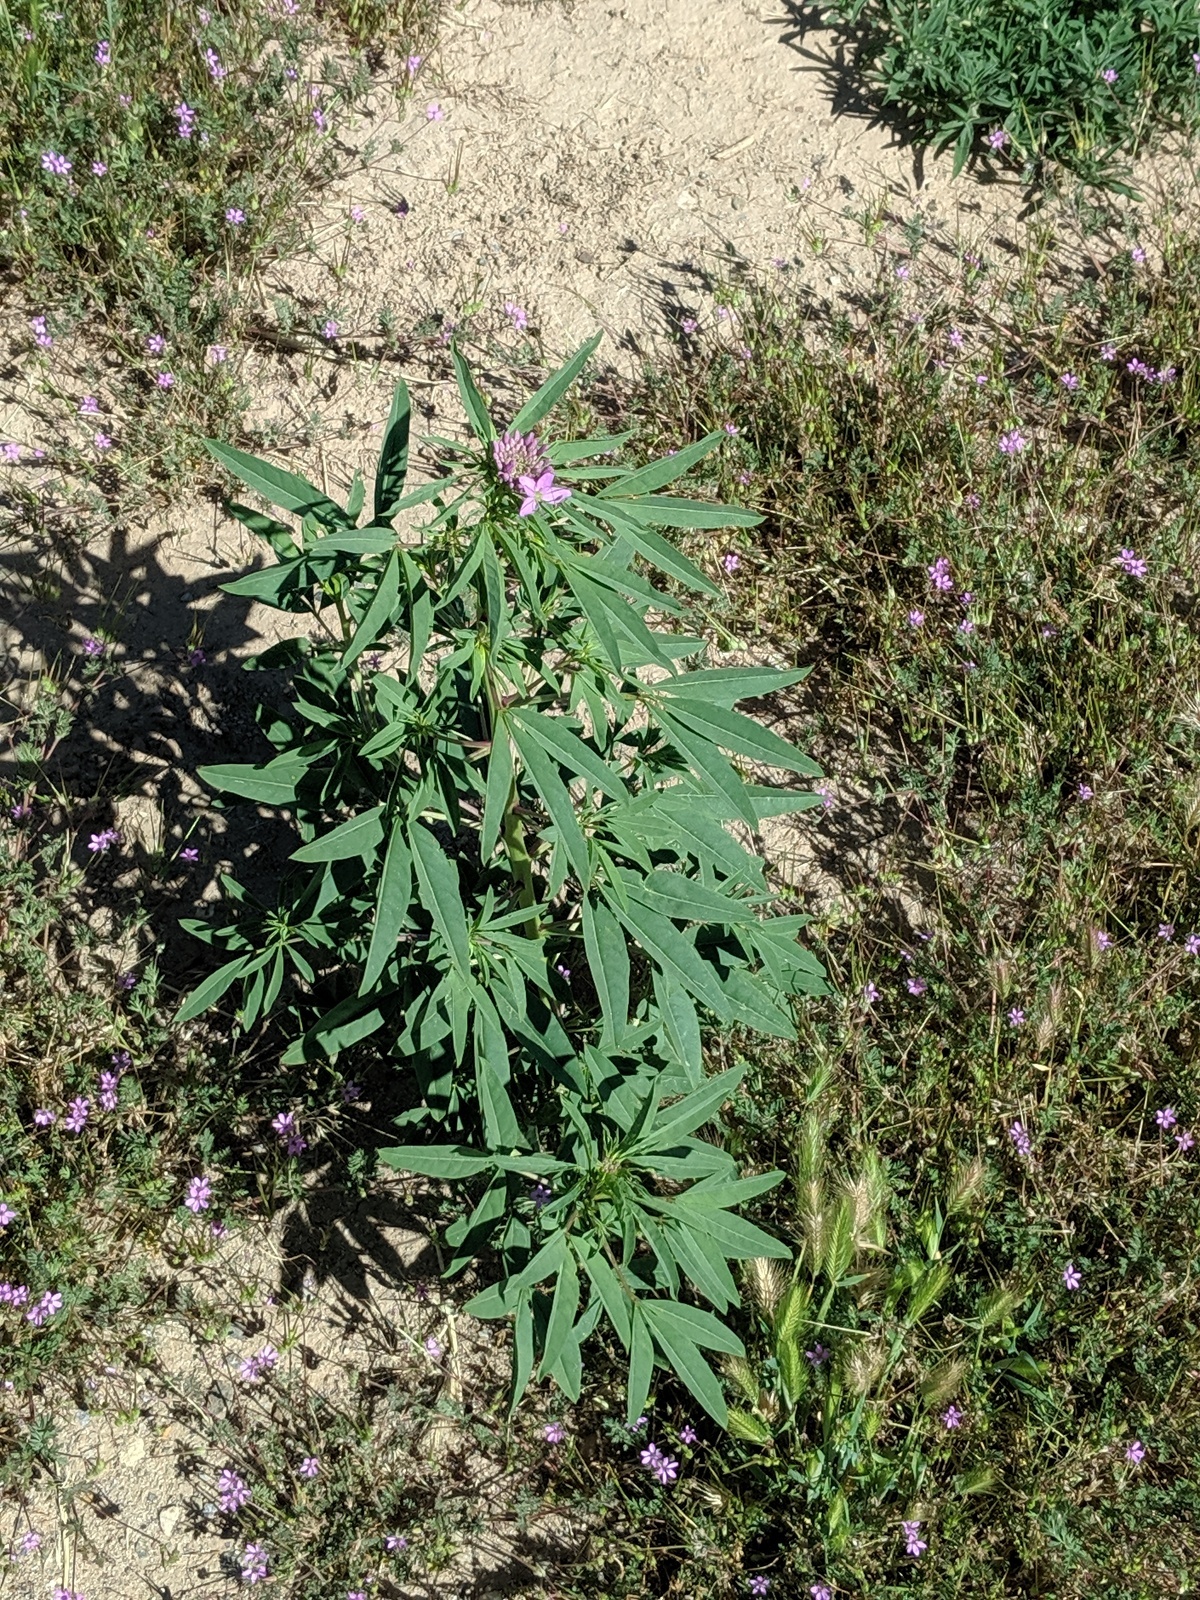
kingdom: Plantae
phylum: Tracheophyta
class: Magnoliopsida
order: Brassicales
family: Cleomaceae
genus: Cleomella
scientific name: Cleomella serrulata
